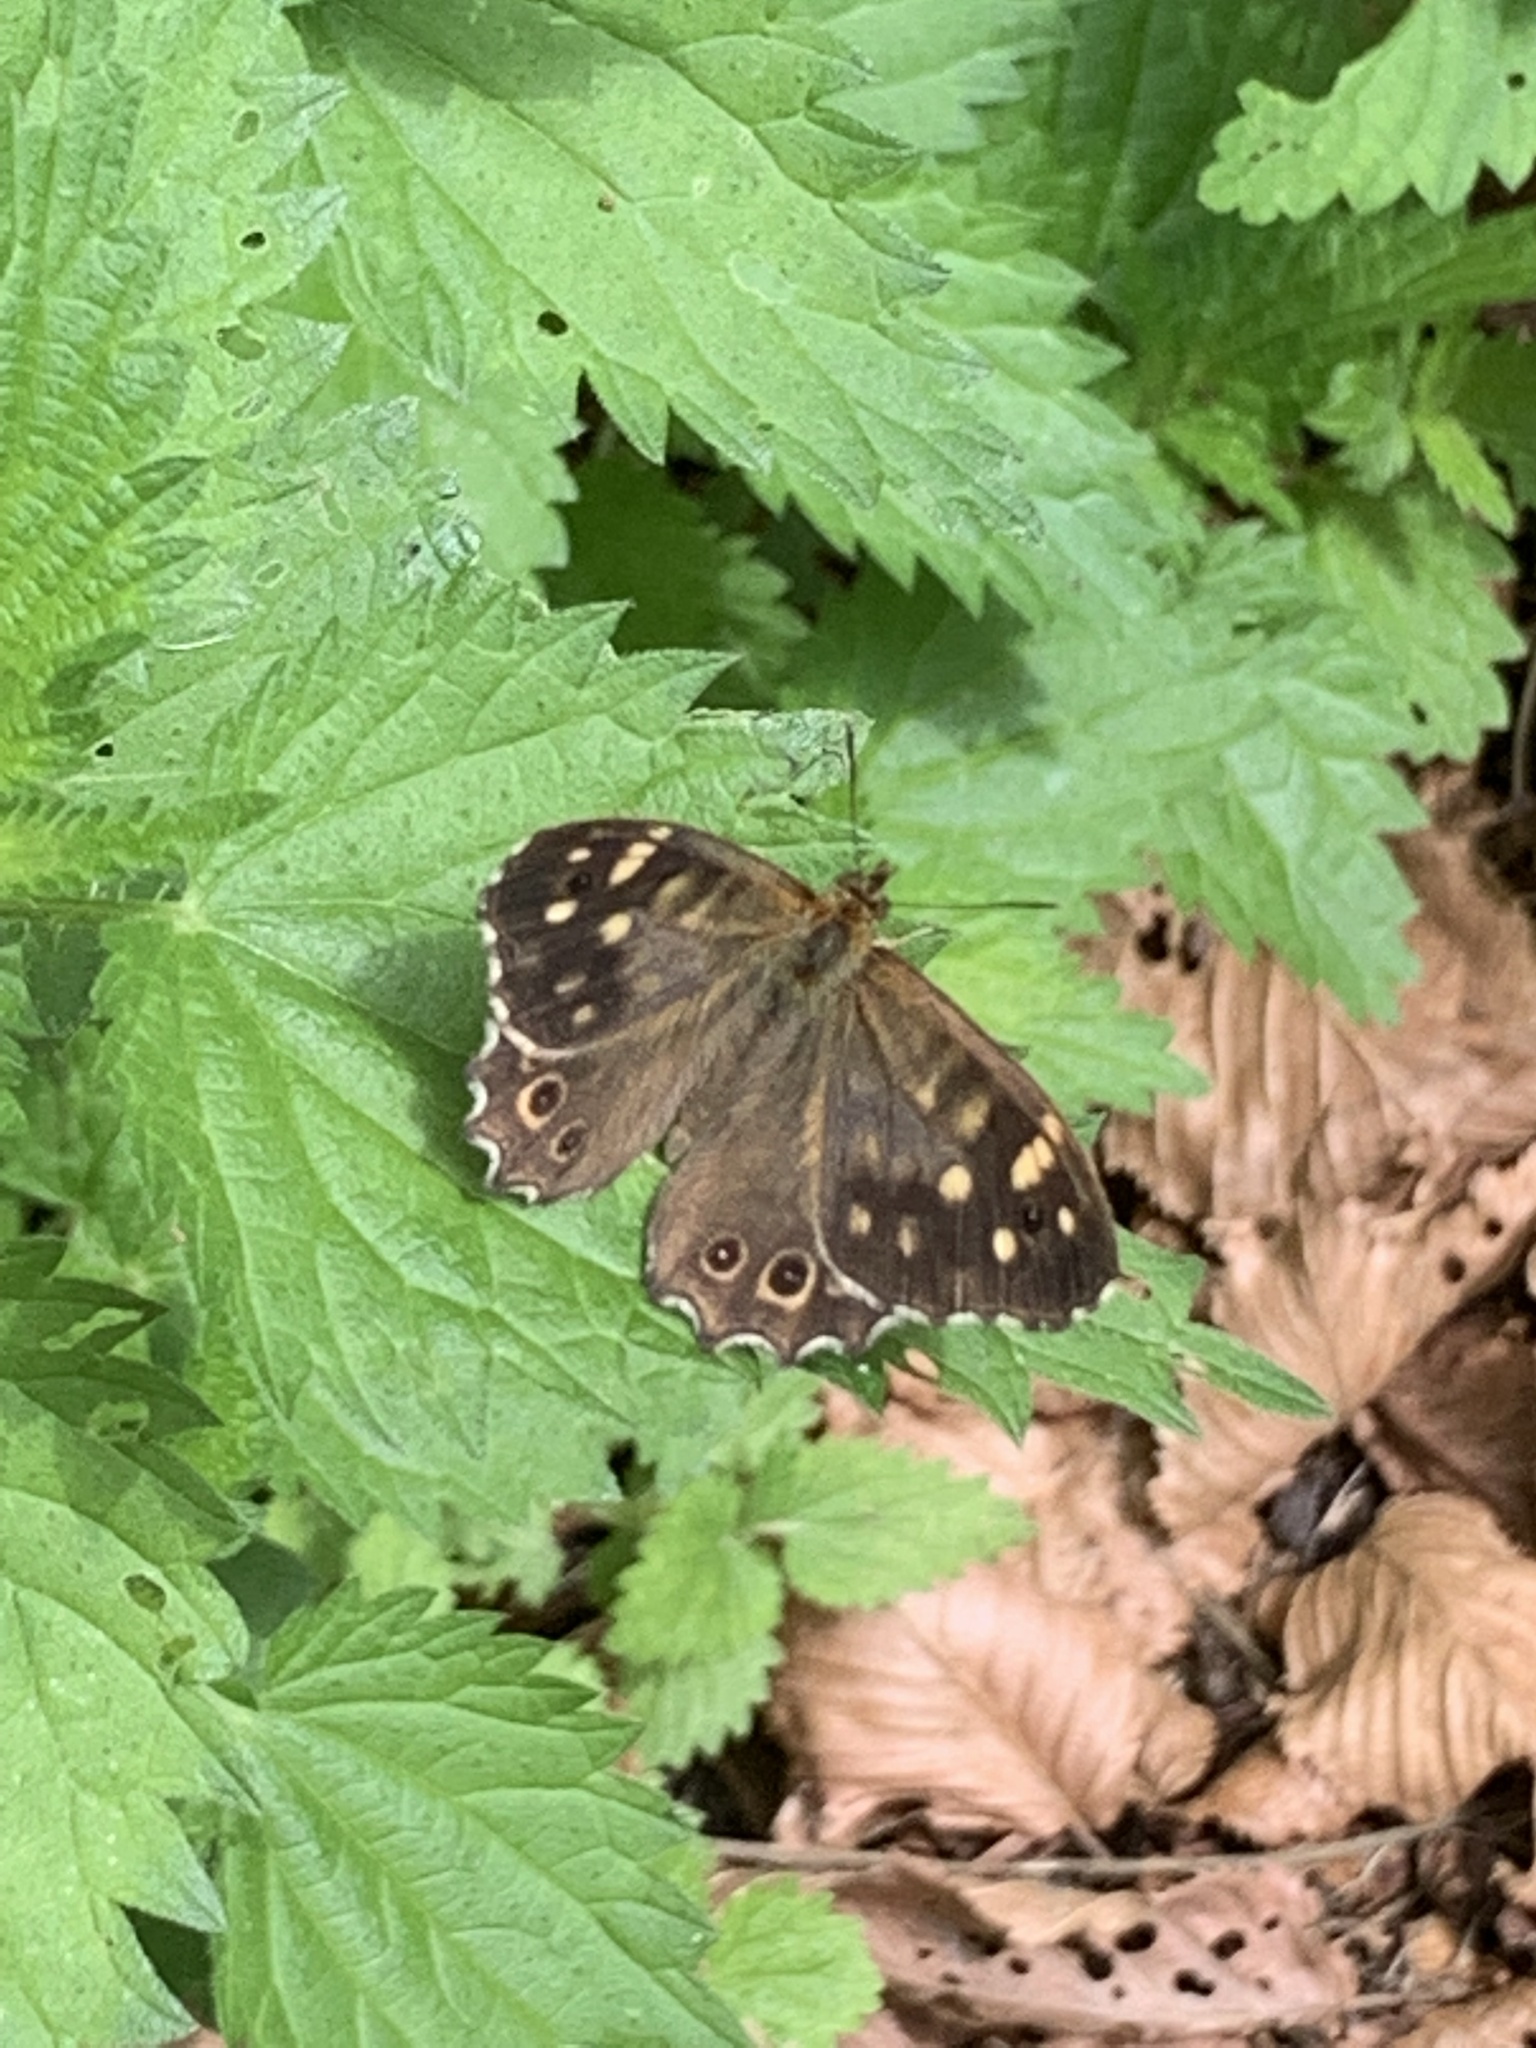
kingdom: Animalia
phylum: Arthropoda
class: Insecta
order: Lepidoptera
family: Nymphalidae
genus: Pararge
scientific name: Pararge aegeria
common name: Speckled wood
